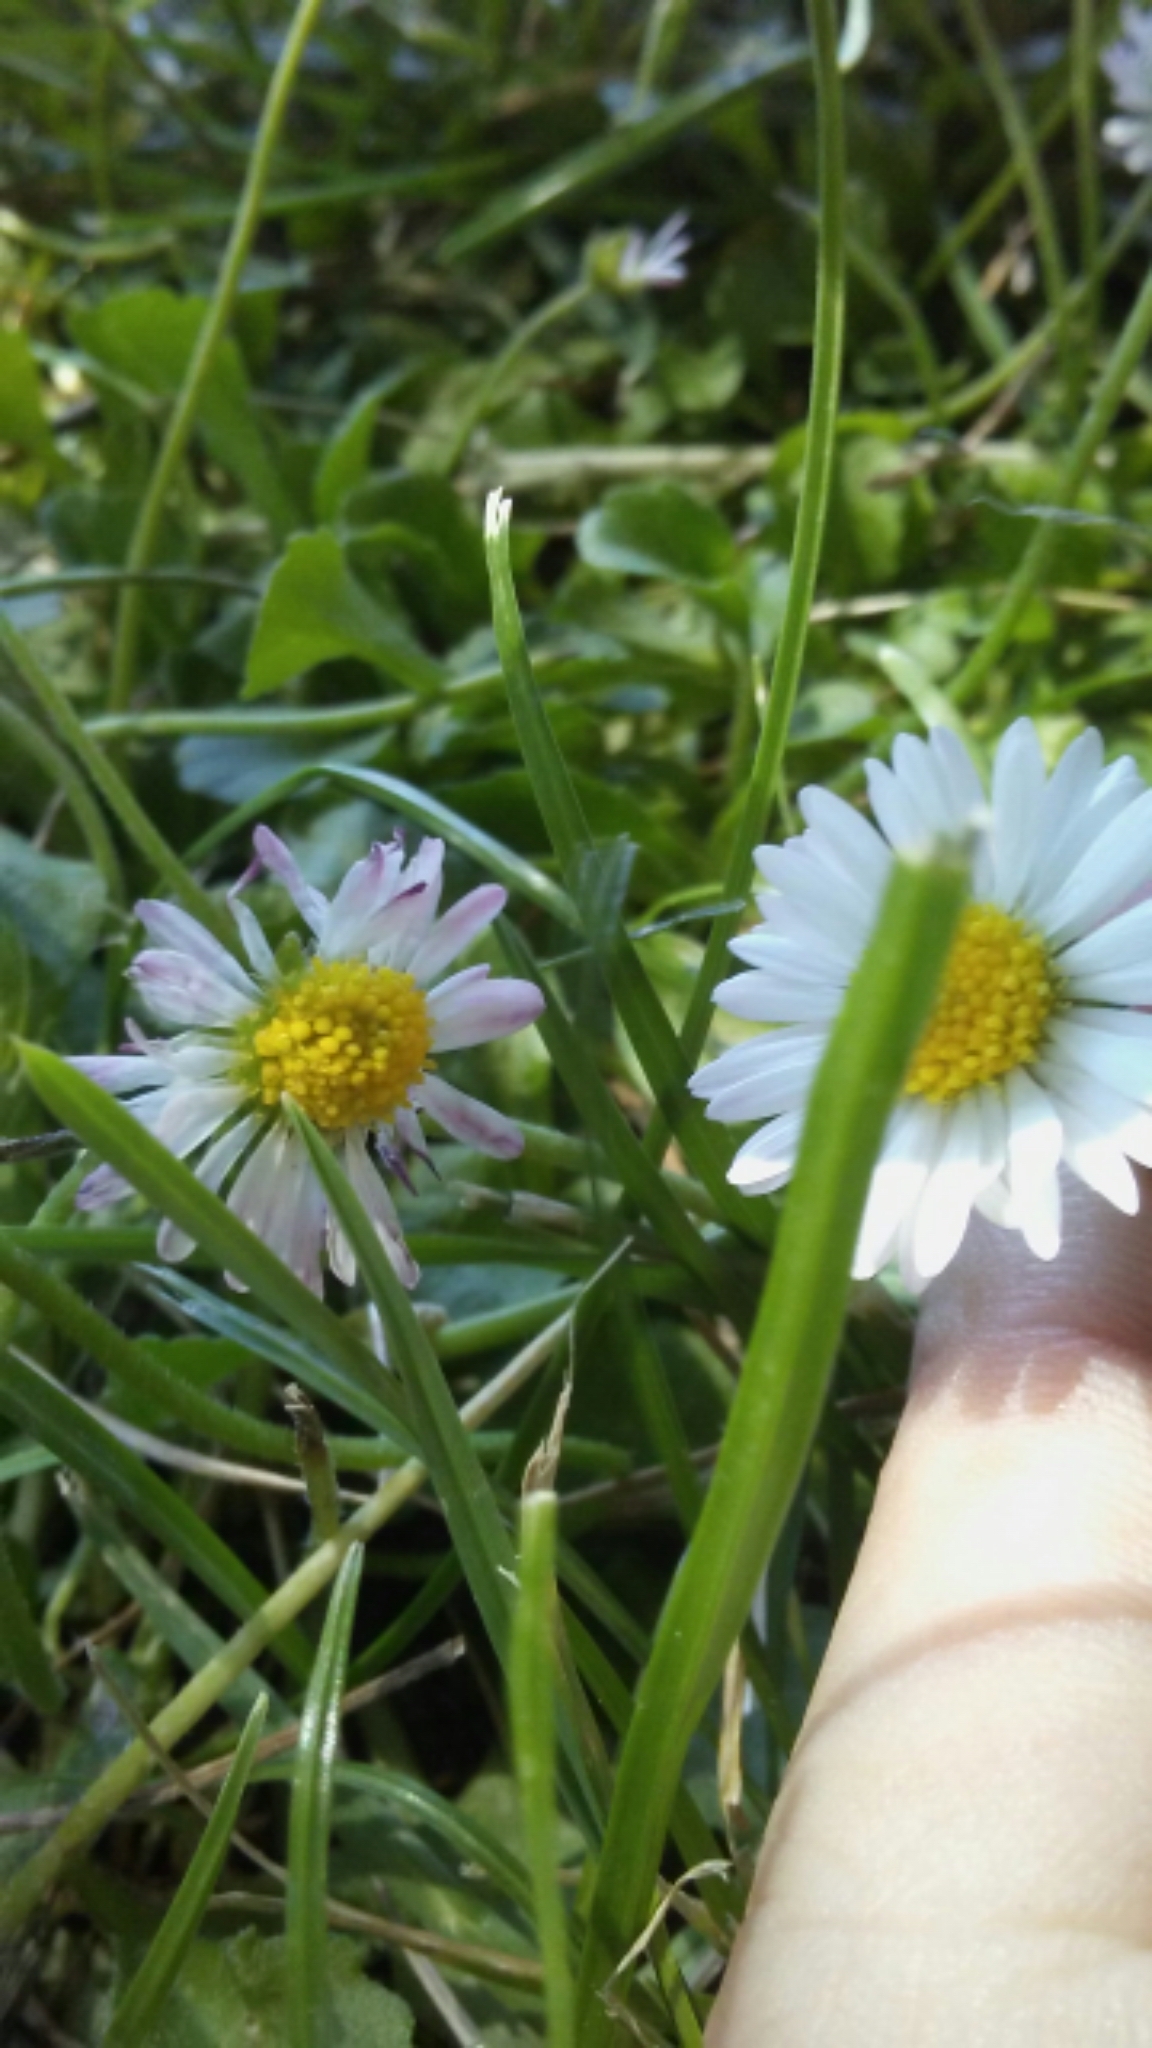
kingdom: Plantae
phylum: Tracheophyta
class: Magnoliopsida
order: Asterales
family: Asteraceae
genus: Bellis
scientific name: Bellis perennis
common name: Lawndaisy
